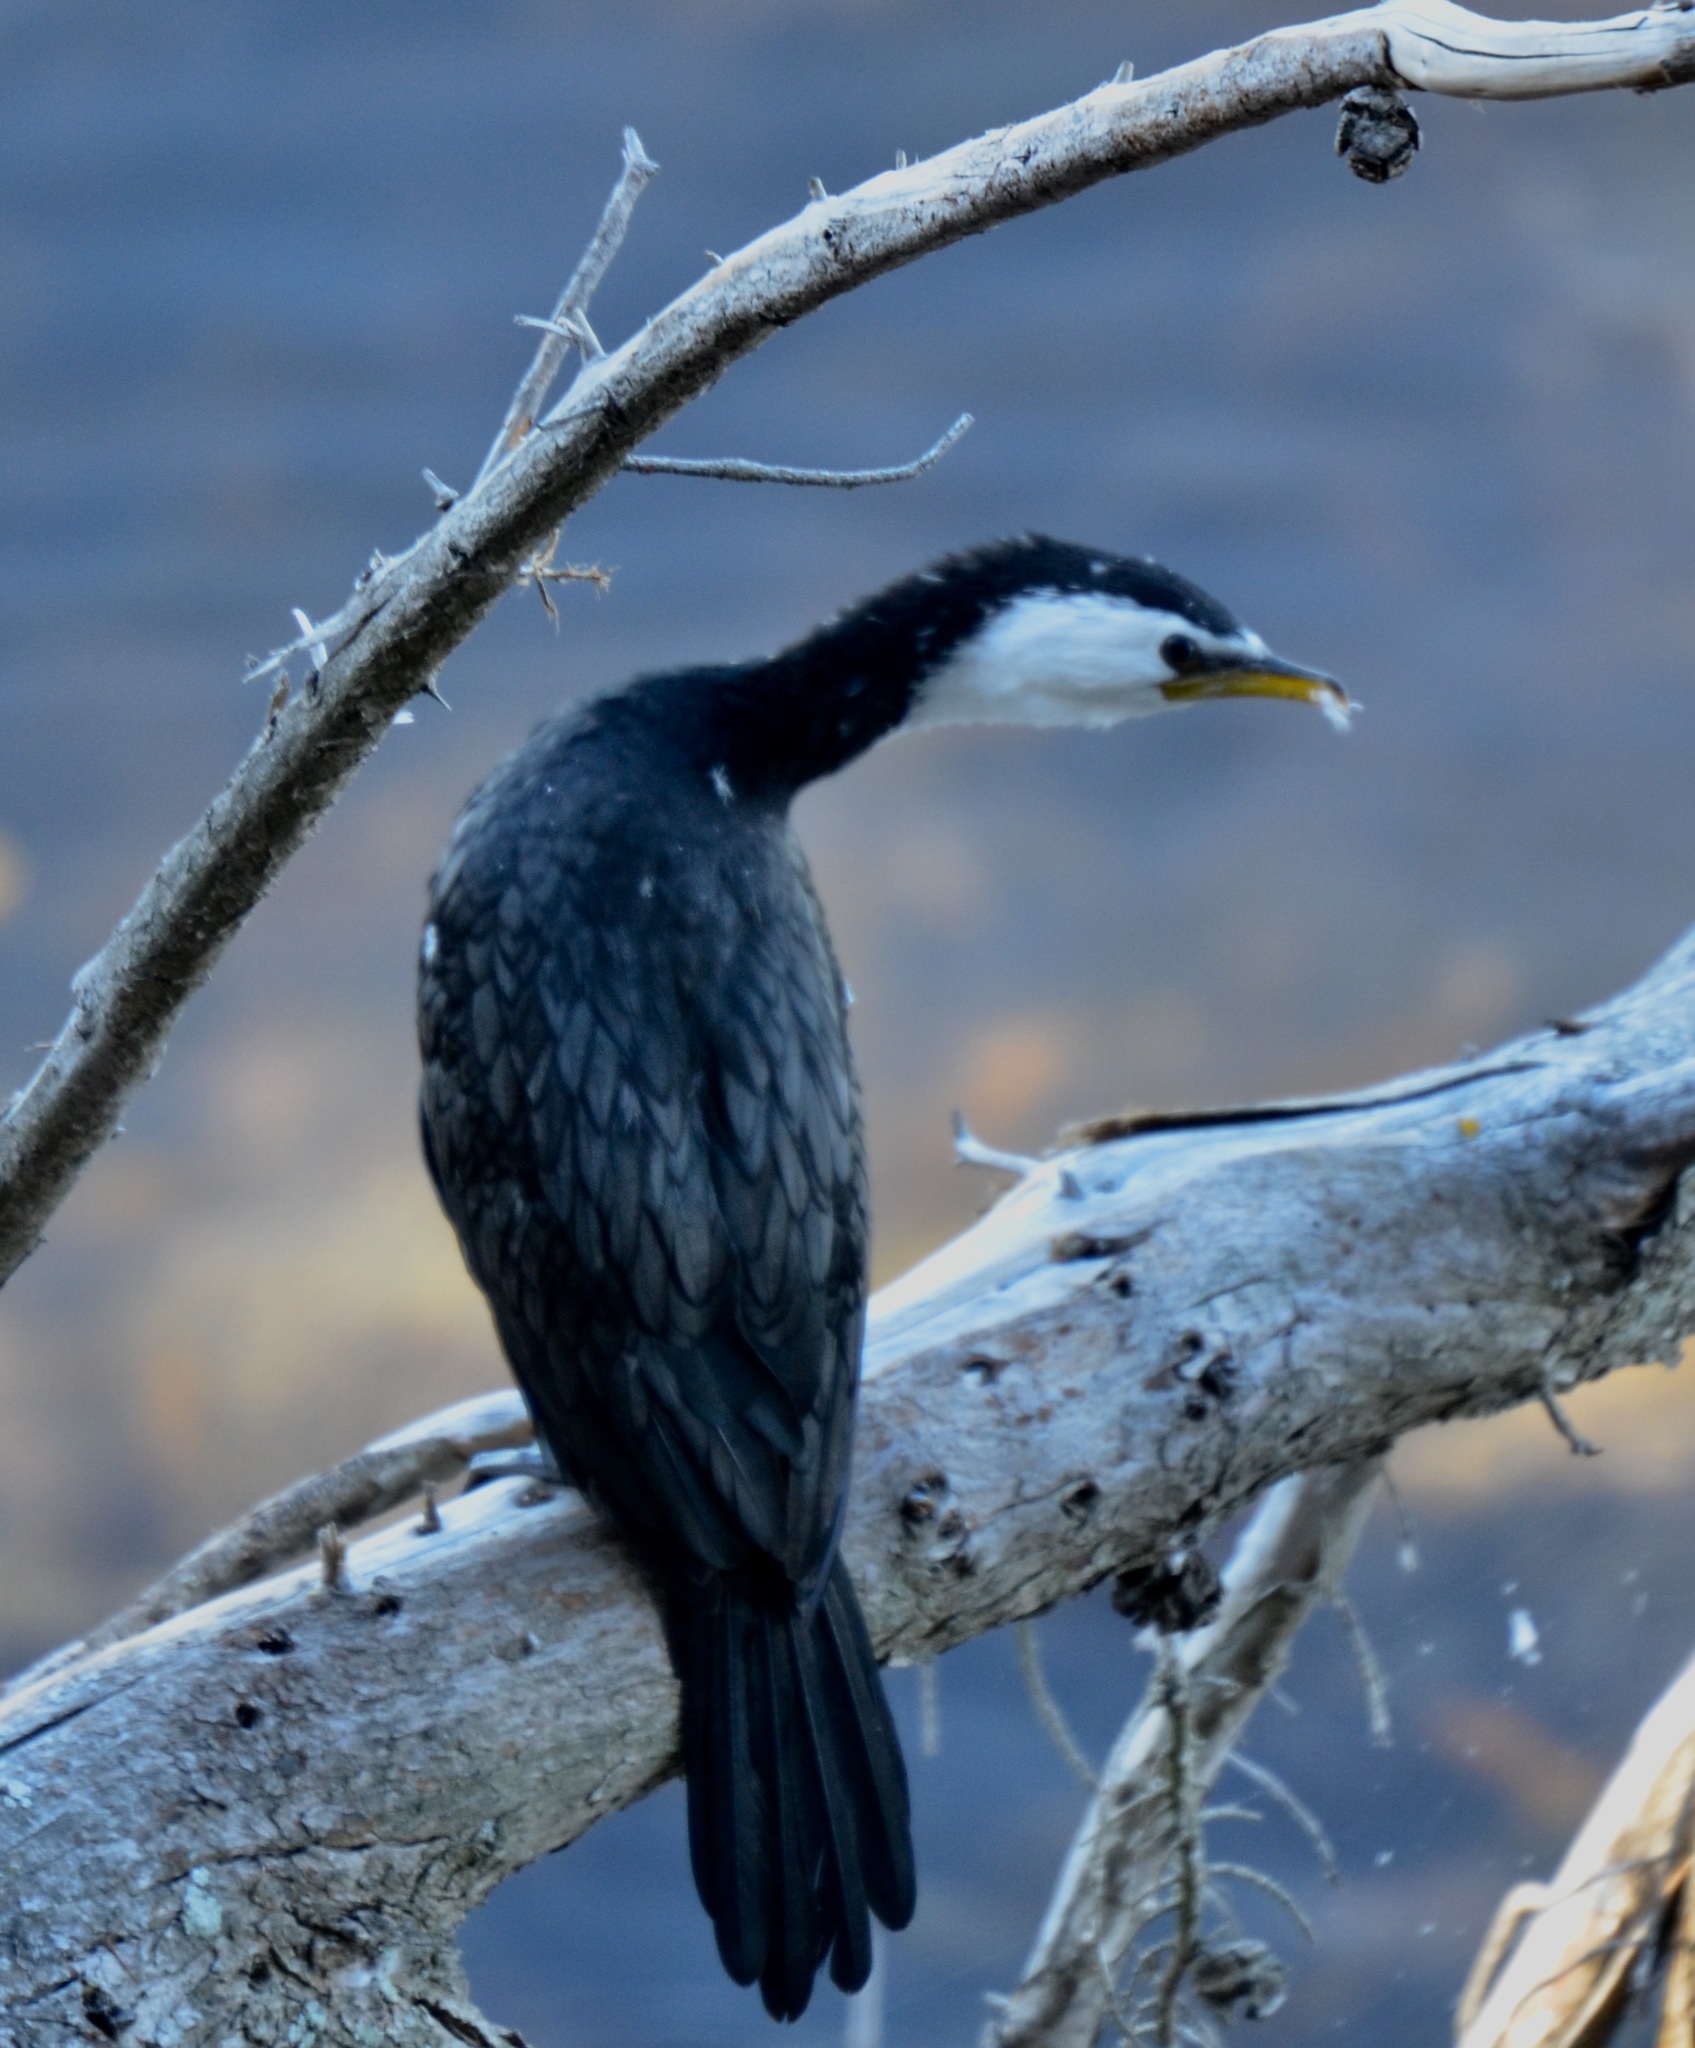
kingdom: Animalia
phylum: Chordata
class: Aves
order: Suliformes
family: Phalacrocoracidae
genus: Microcarbo
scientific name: Microcarbo melanoleucos
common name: Little pied cormorant
